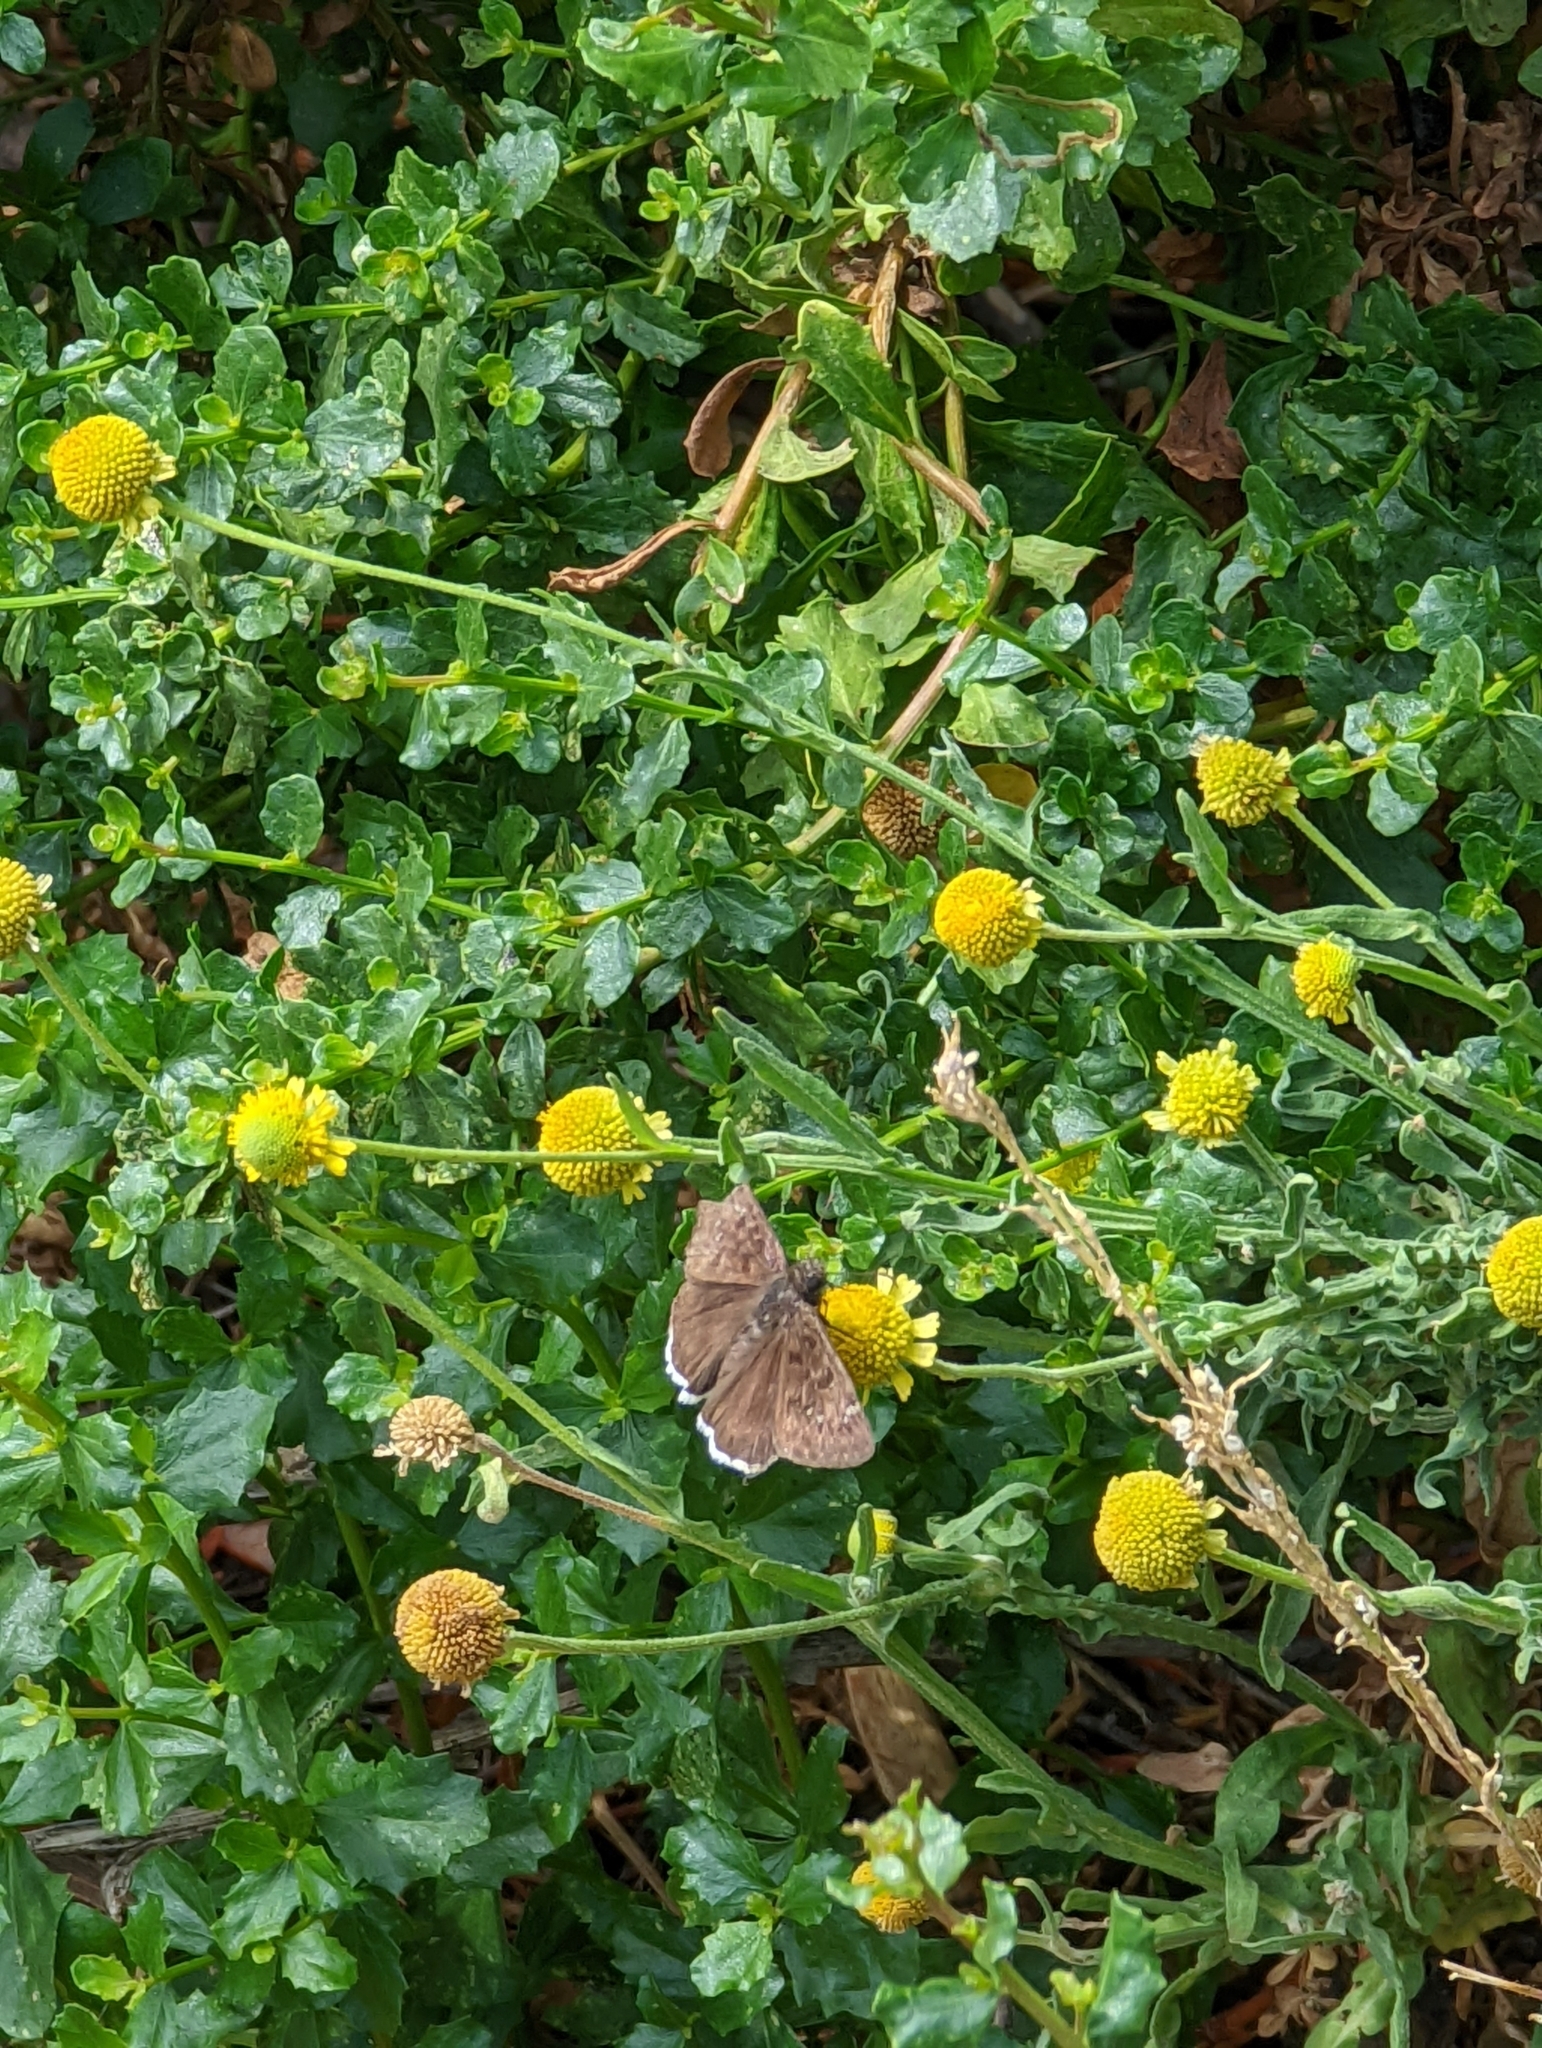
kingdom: Animalia
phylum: Arthropoda
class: Insecta
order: Lepidoptera
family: Hesperiidae
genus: Erynnis
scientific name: Erynnis tristis
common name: Mournful duskywing
